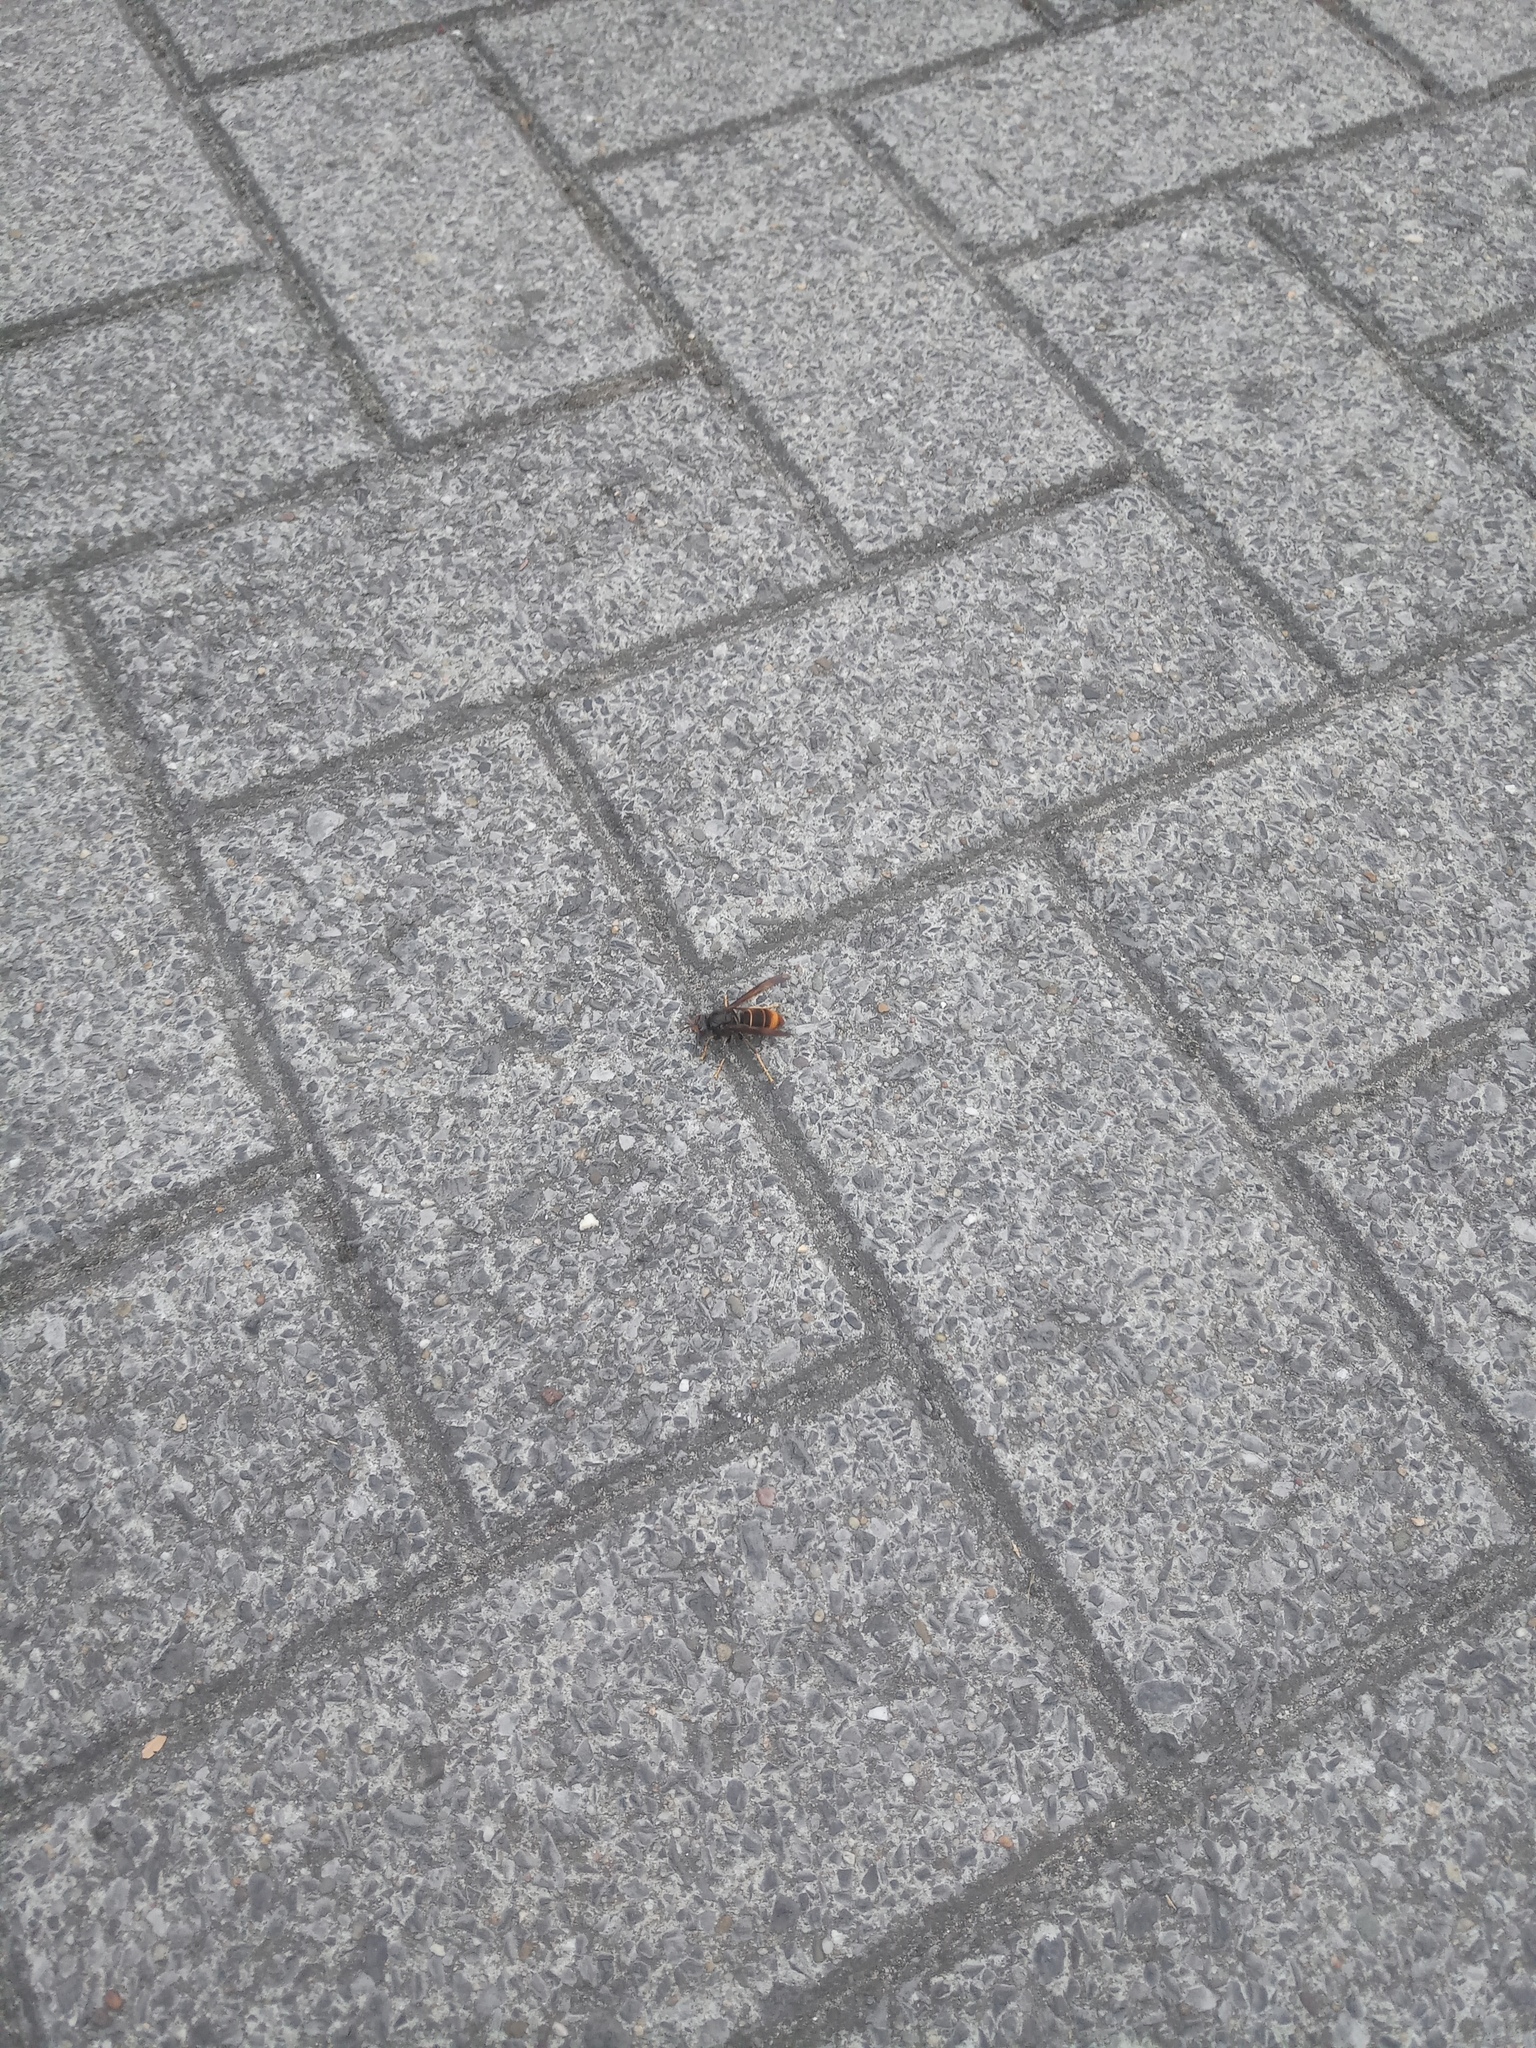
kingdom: Animalia
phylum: Arthropoda
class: Insecta
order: Hymenoptera
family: Vespidae
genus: Vespa
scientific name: Vespa velutina
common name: Asian hornet
